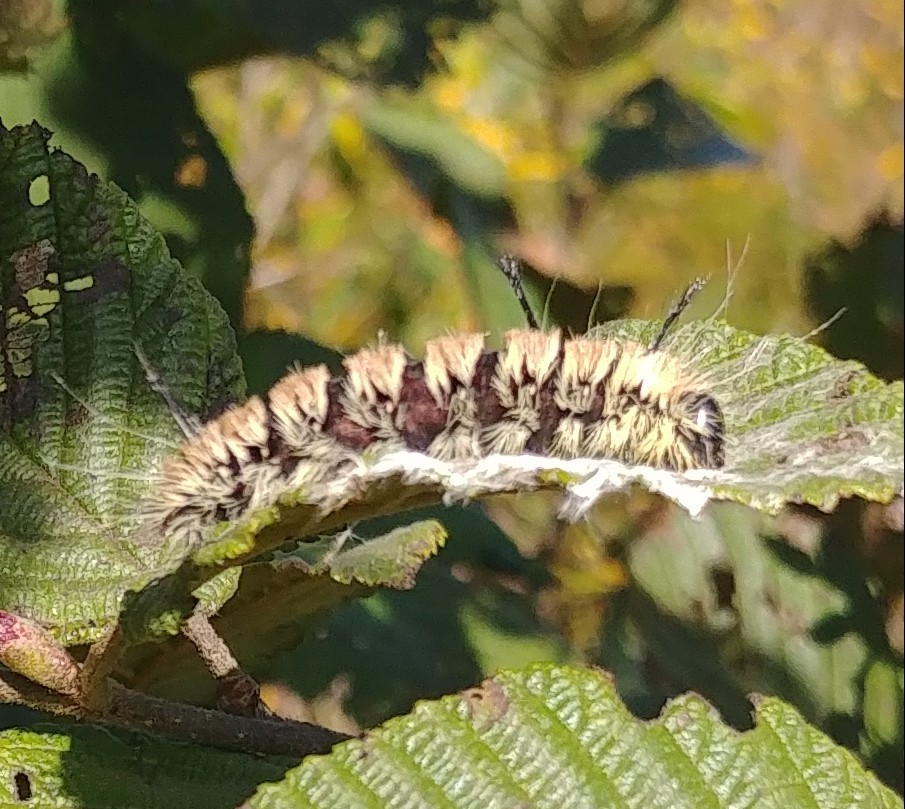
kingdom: Animalia
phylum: Arthropoda
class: Insecta
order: Lepidoptera
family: Noctuidae
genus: Acronicta
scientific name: Acronicta insita
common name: Large gray dagger
